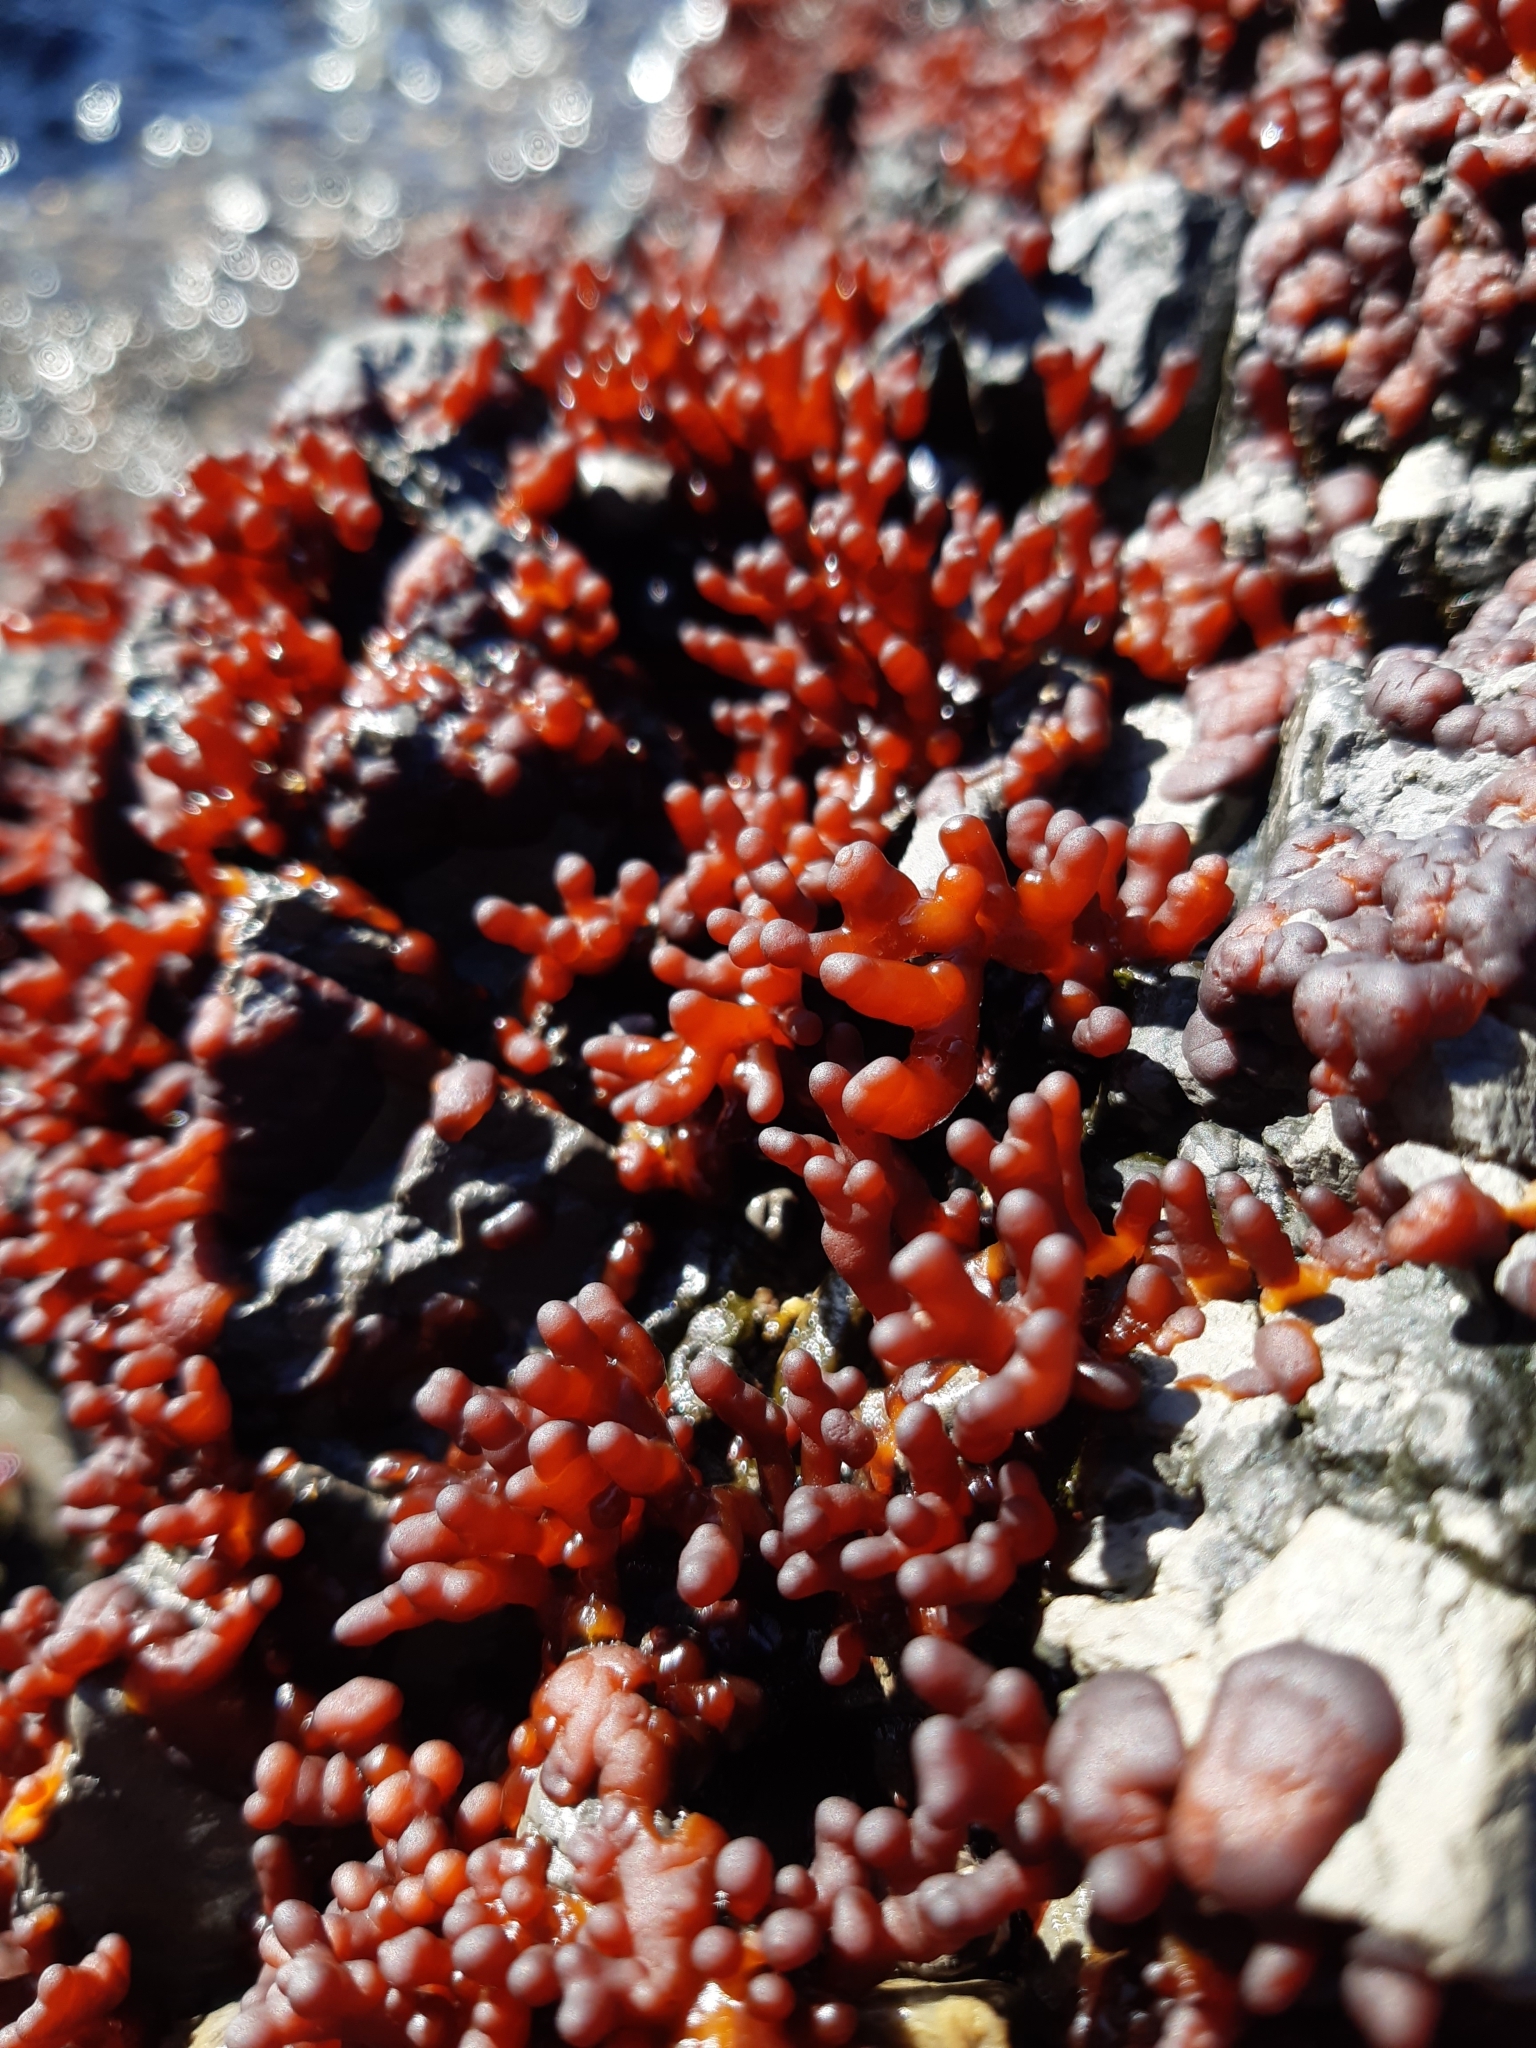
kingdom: Plantae
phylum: Rhodophyta
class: Florideophyceae
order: Hildenbrandiales
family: Hildenbrandiaceae
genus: Apophlaea
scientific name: Apophlaea sinclairii
